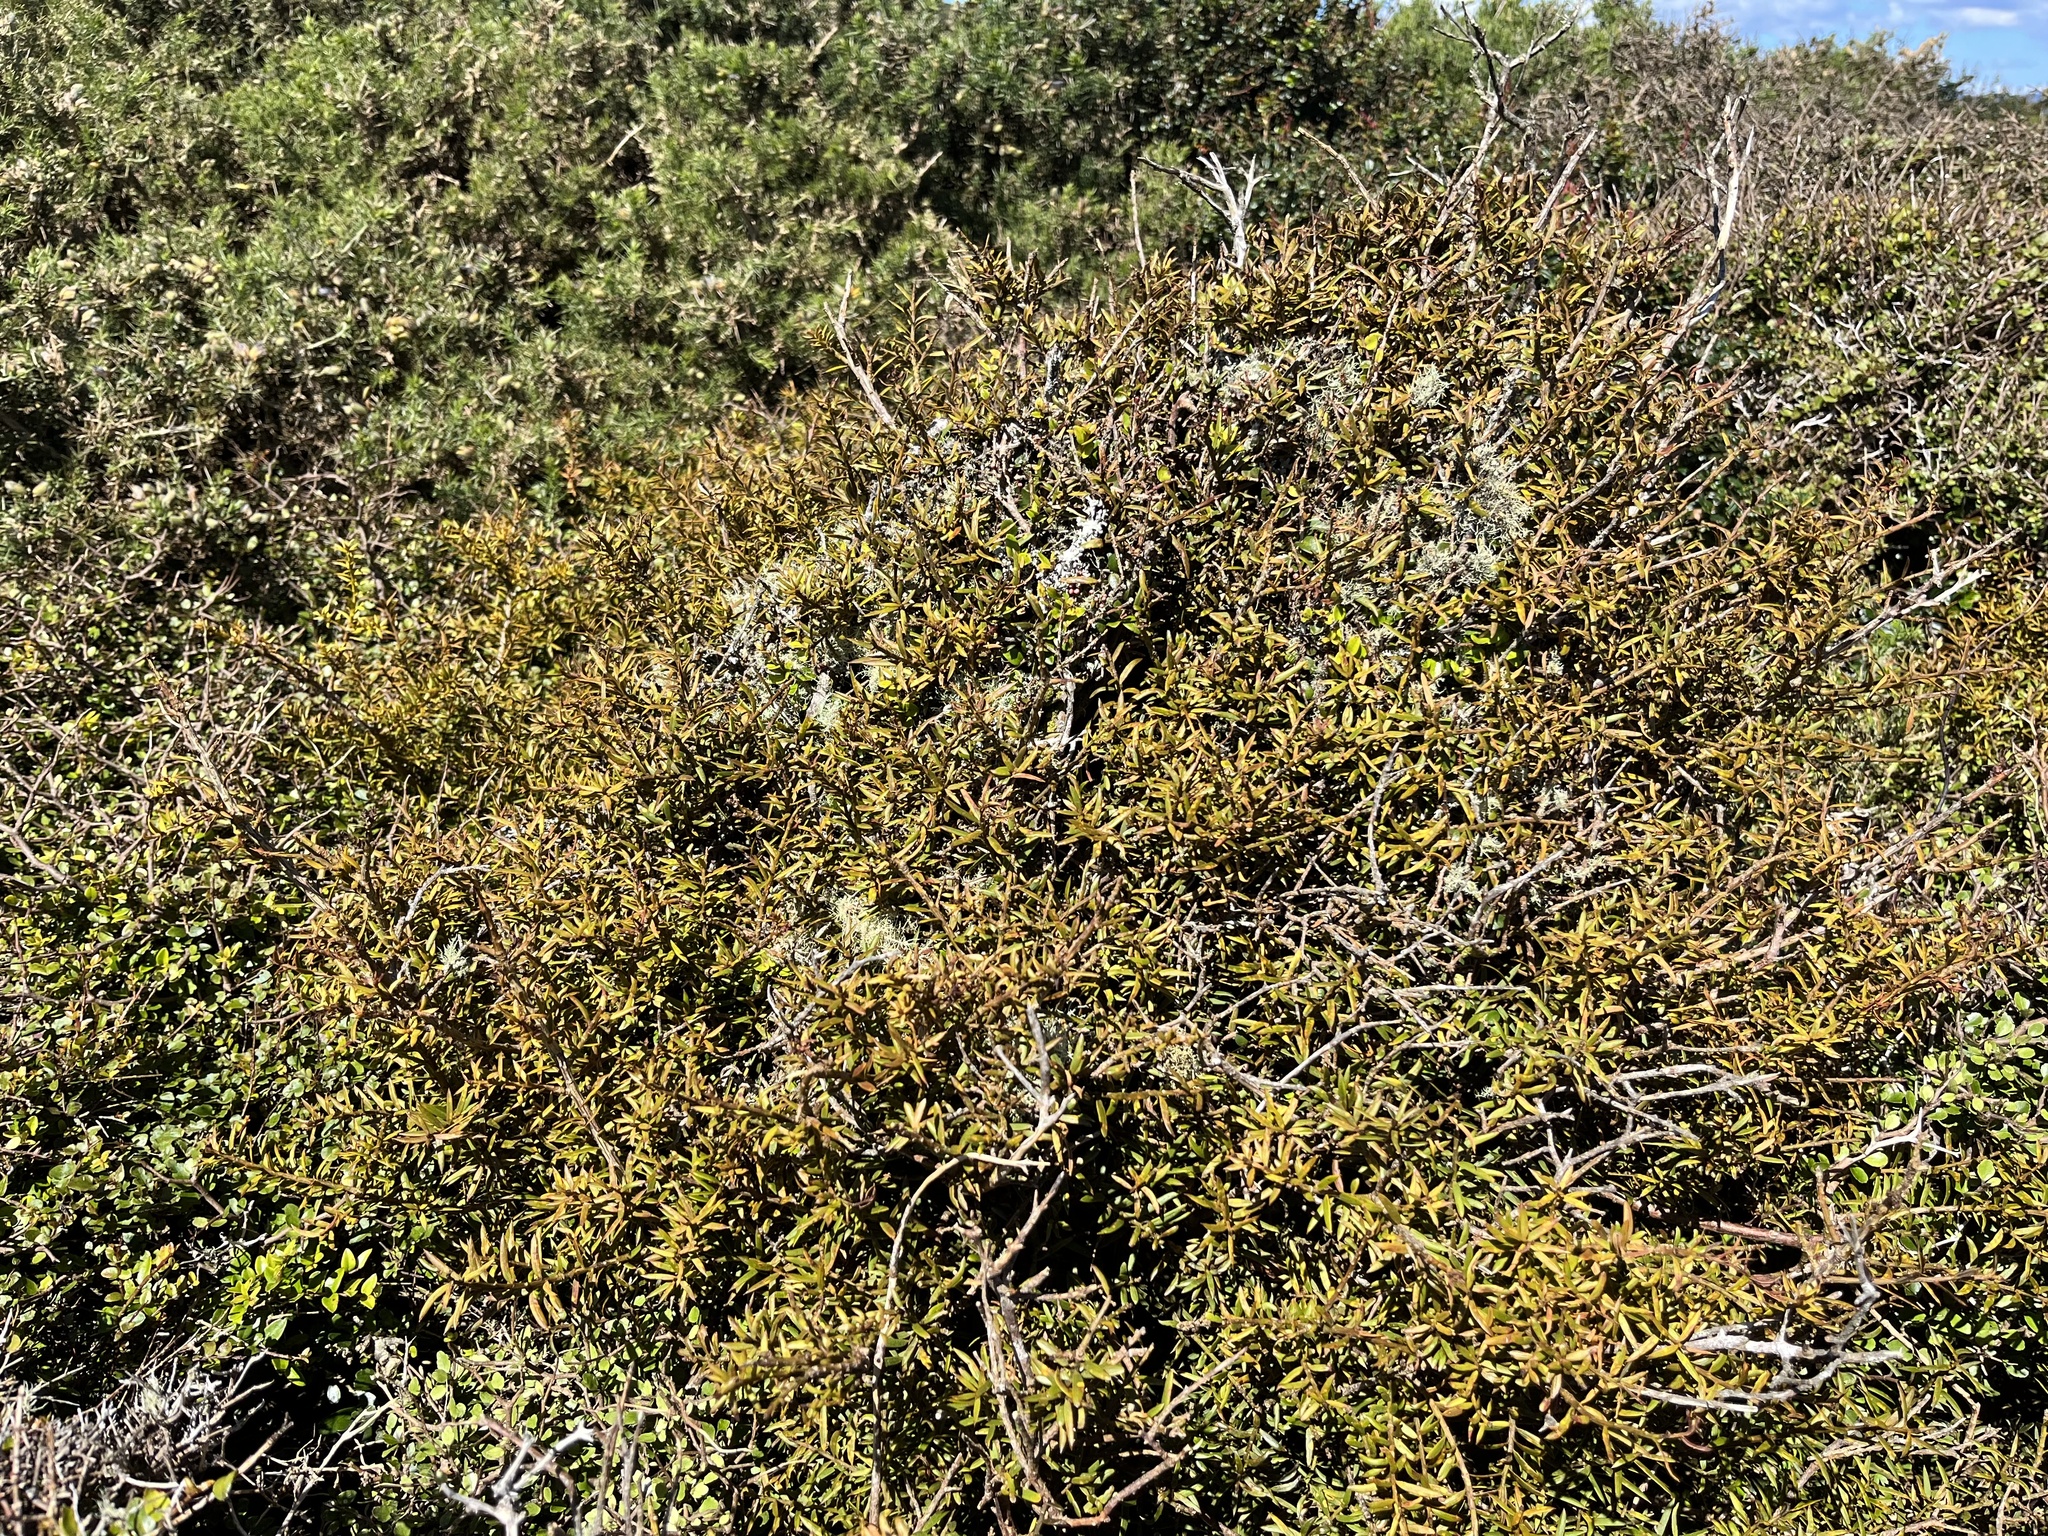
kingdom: Plantae
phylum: Tracheophyta
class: Pinopsida
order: Pinales
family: Podocarpaceae
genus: Podocarpus
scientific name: Podocarpus totara
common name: Totara
